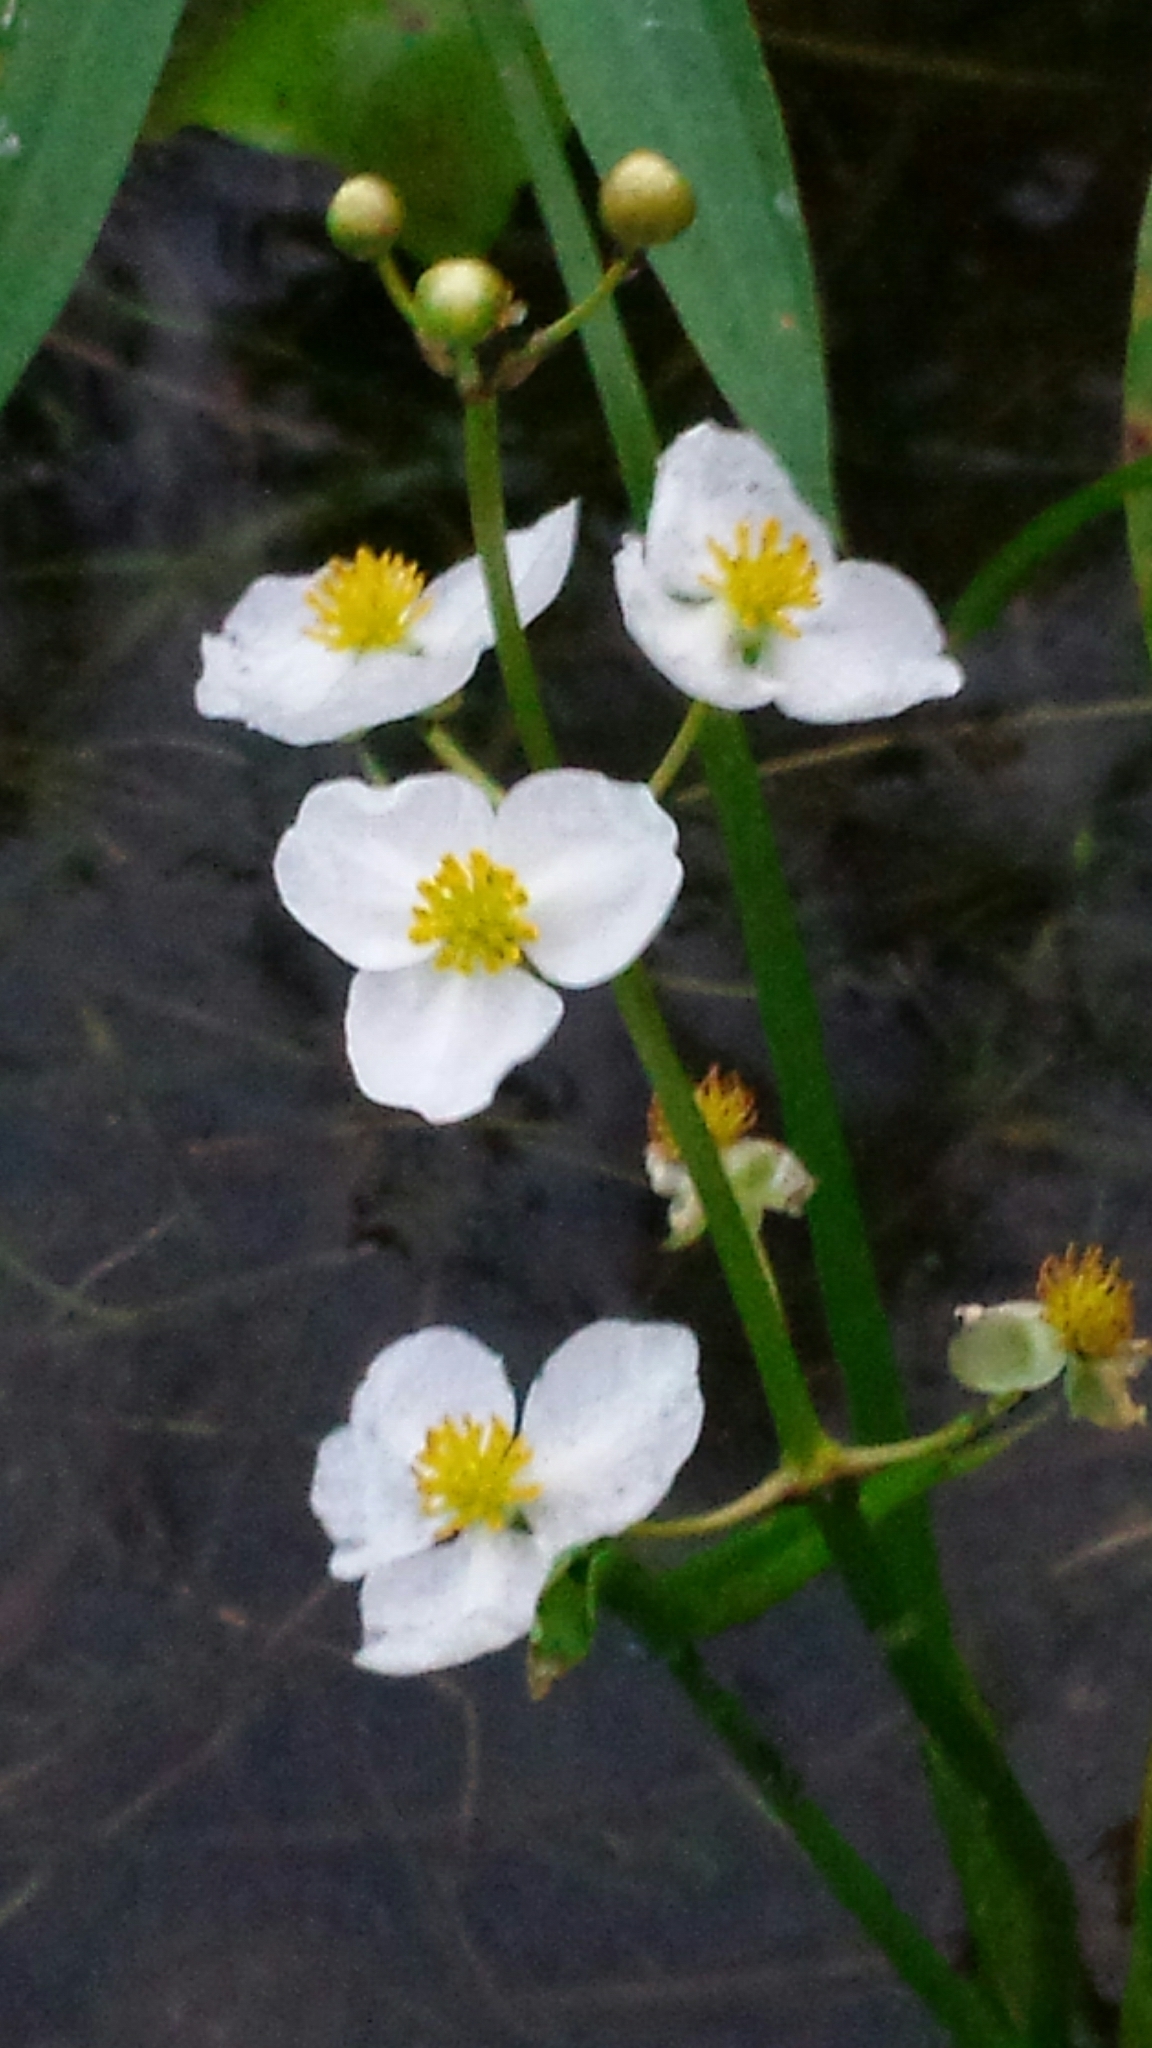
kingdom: Plantae
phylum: Tracheophyta
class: Liliopsida
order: Alismatales
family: Alismataceae
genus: Sagittaria
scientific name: Sagittaria latifolia
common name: Duck-potato
